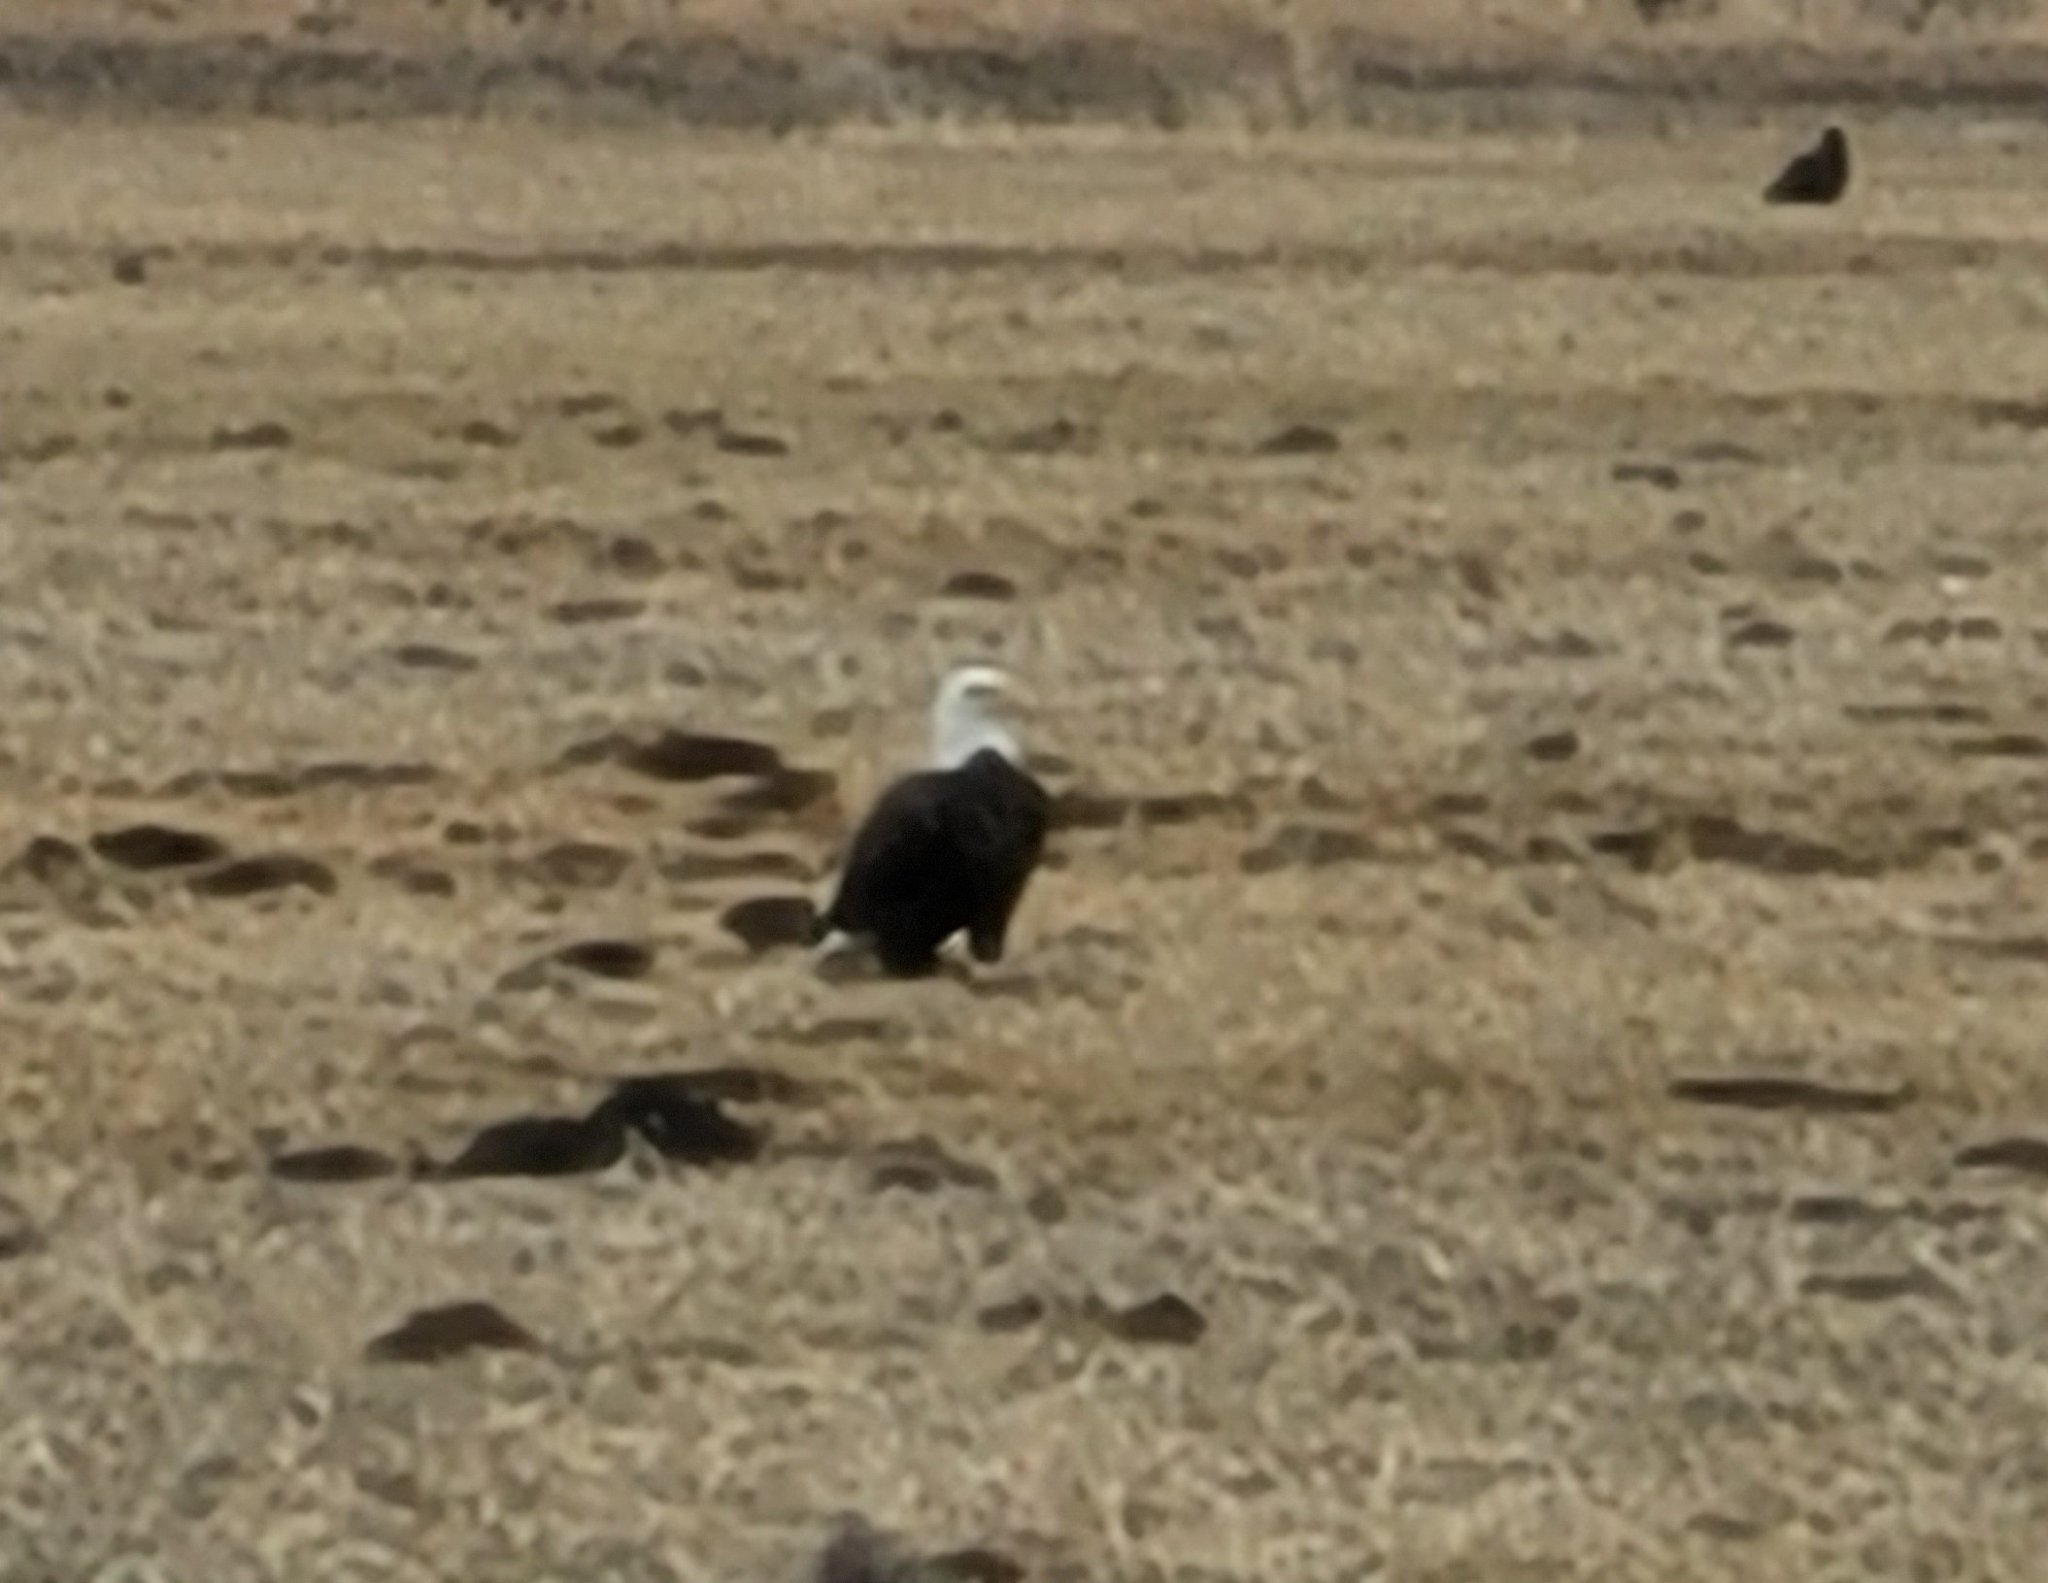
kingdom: Animalia
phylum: Chordata
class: Aves
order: Accipitriformes
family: Accipitridae
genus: Haliaeetus
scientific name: Haliaeetus leucocephalus
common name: Bald eagle
